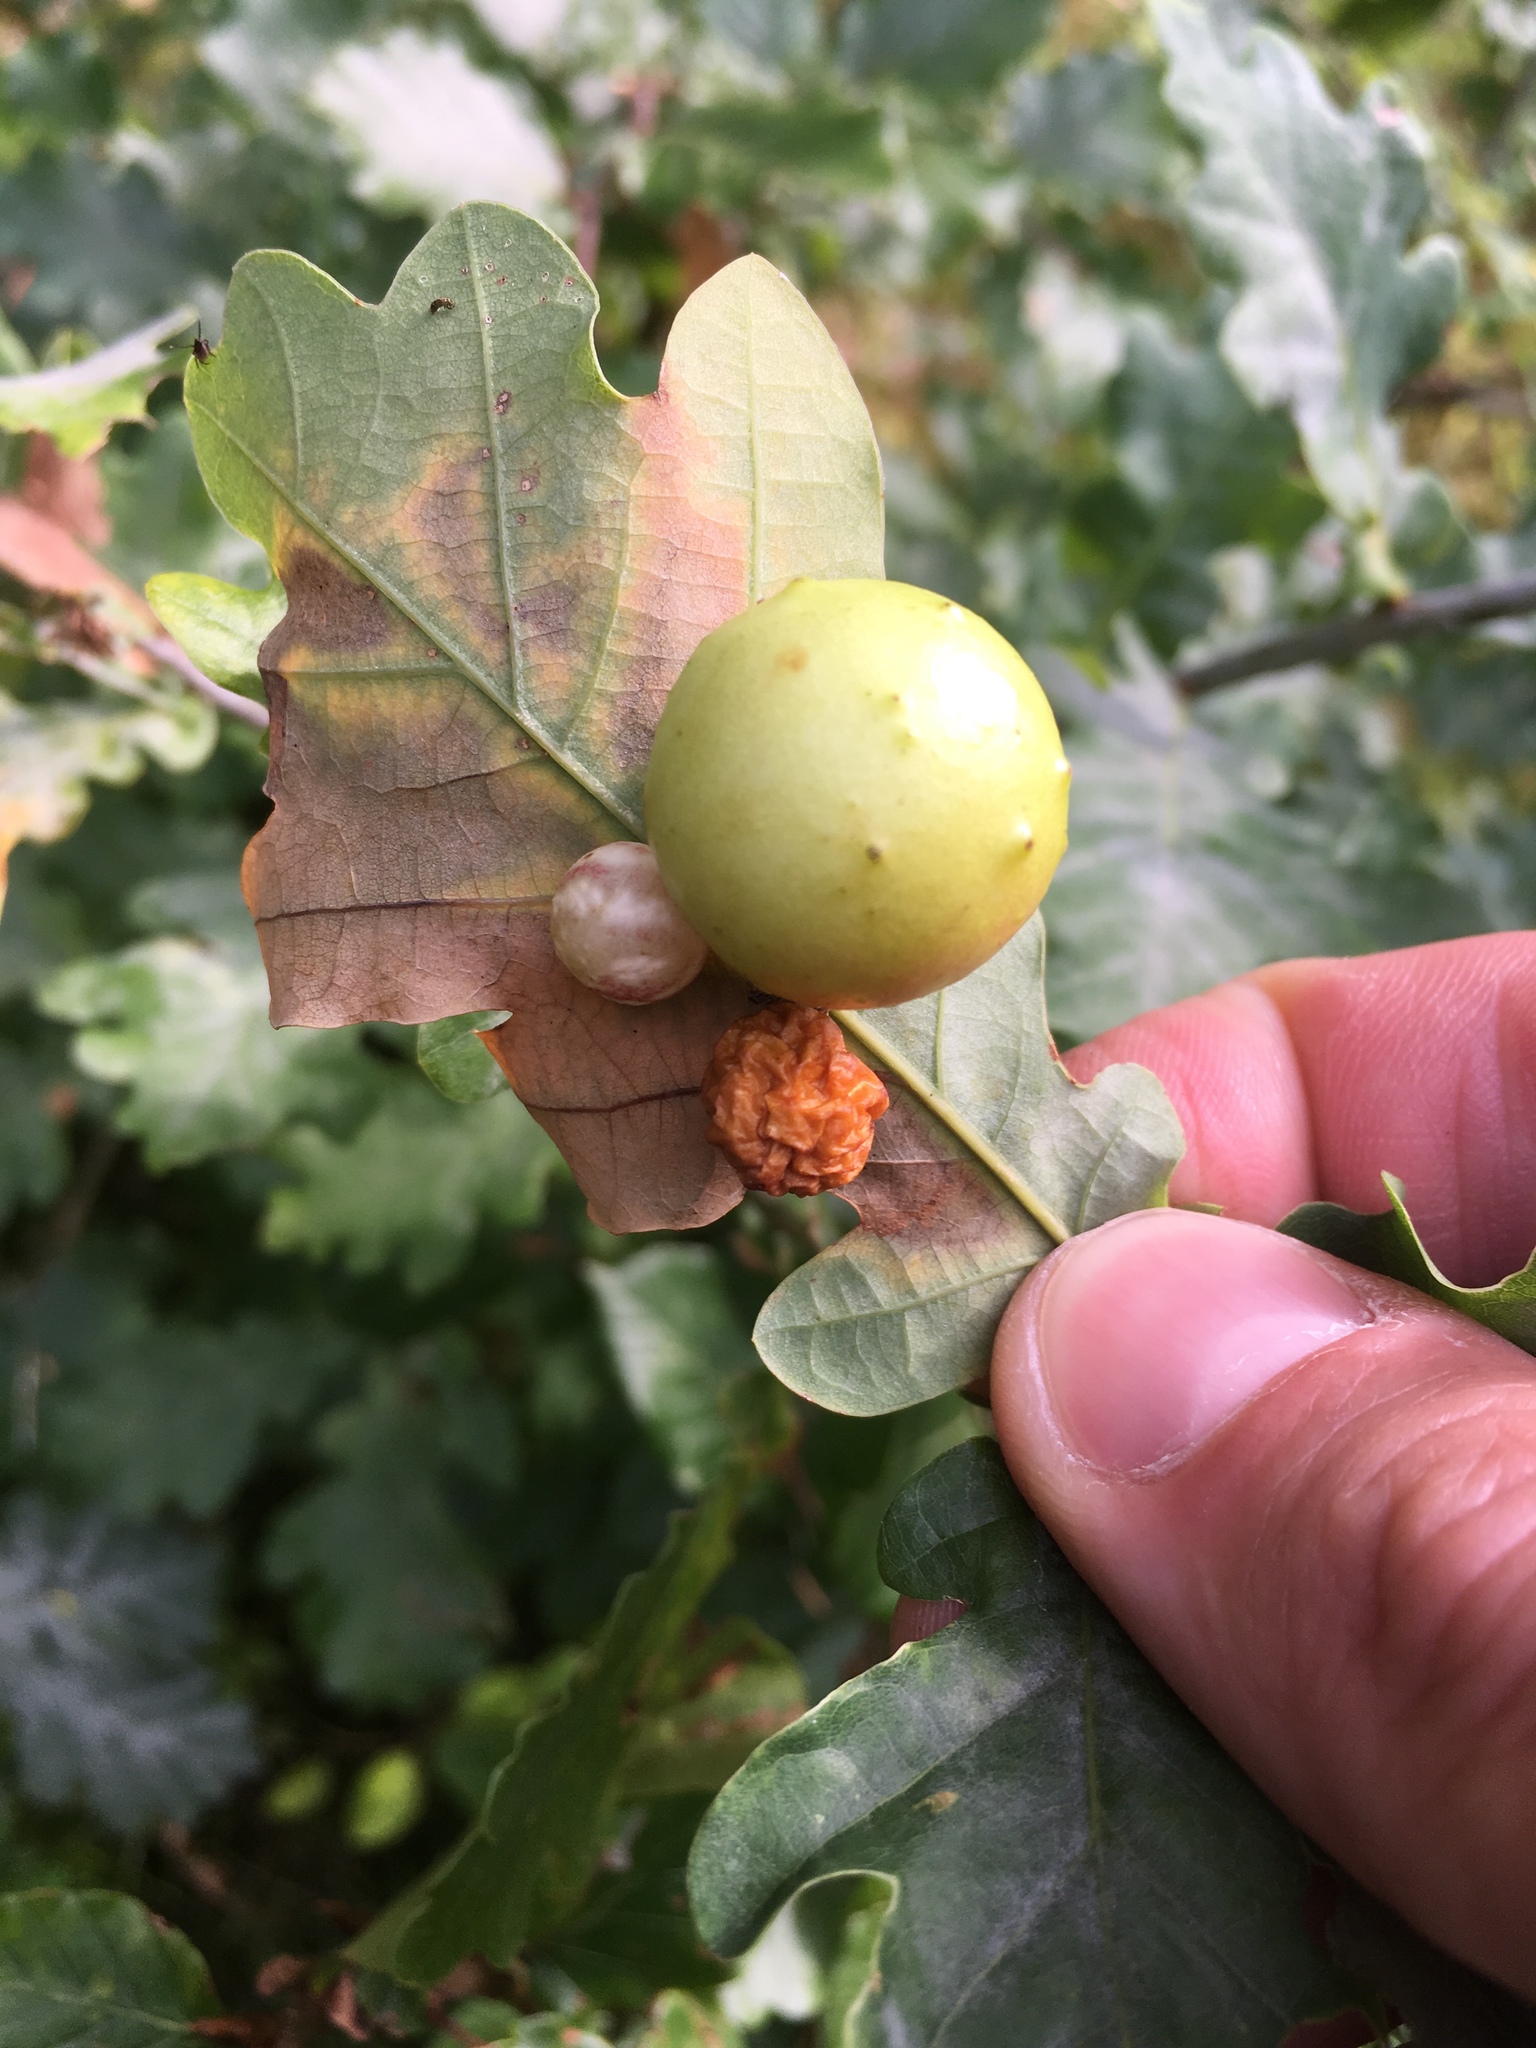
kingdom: Animalia
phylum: Arthropoda
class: Insecta
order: Hymenoptera
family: Cynipidae
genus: Cynips
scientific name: Cynips quercusfolii
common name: Cherry gall
